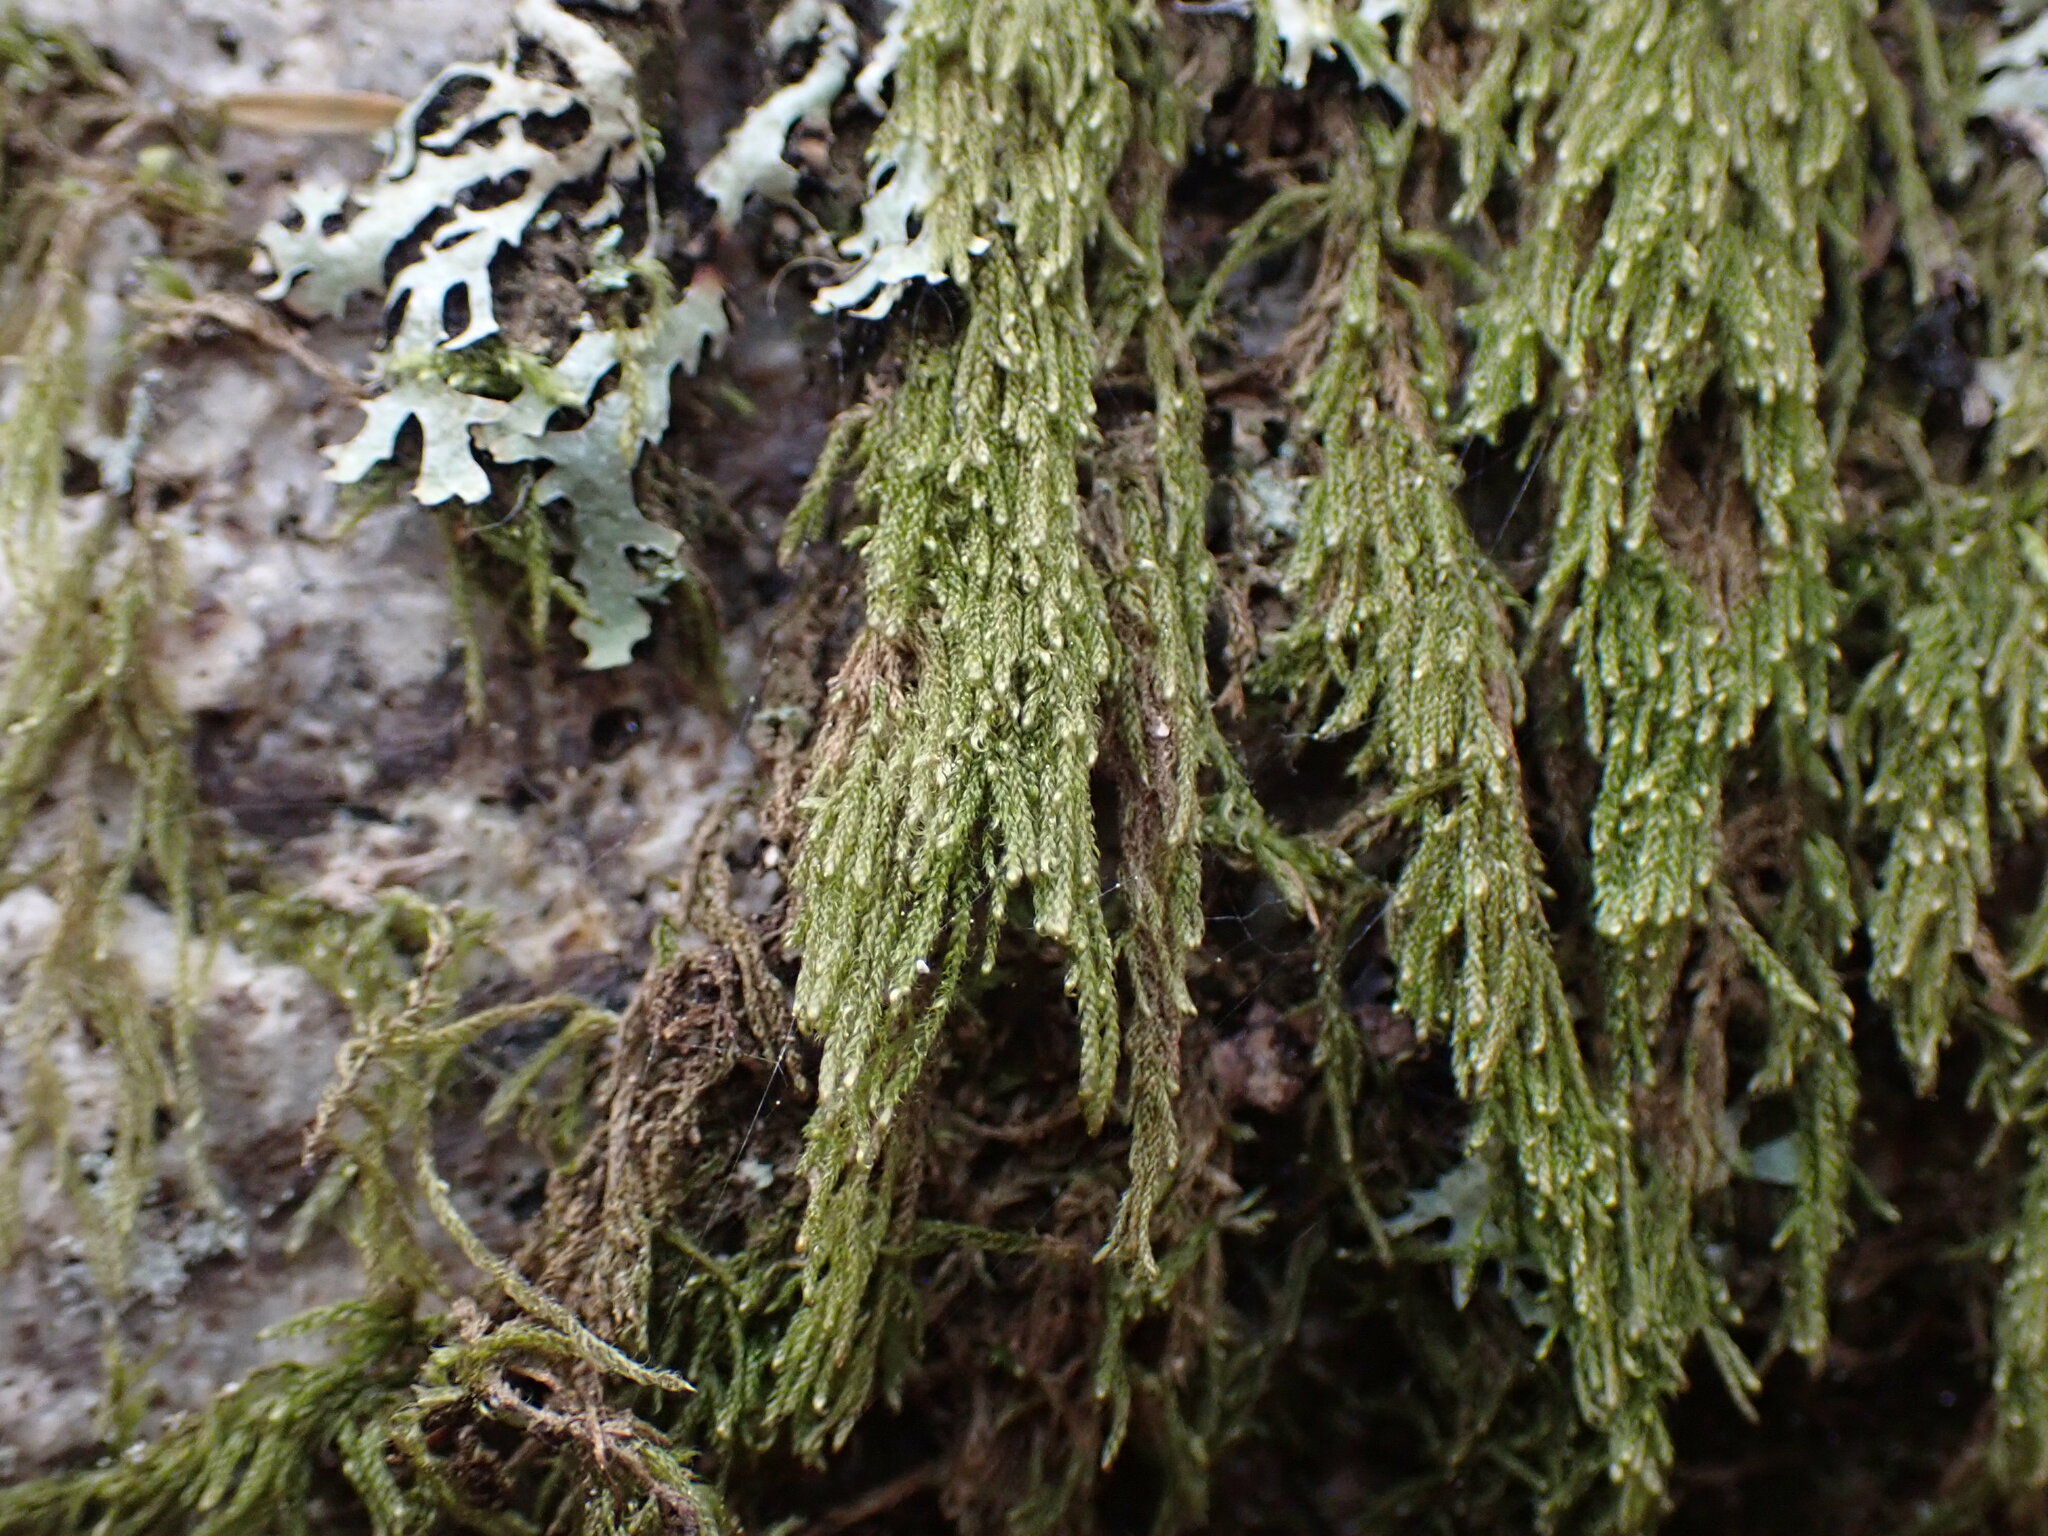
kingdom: Plantae
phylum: Bryophyta
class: Bryopsida
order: Hypnales
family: Pylaisiadelphaceae
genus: Trochophyllohypnum
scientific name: Trochophyllohypnum circinale
